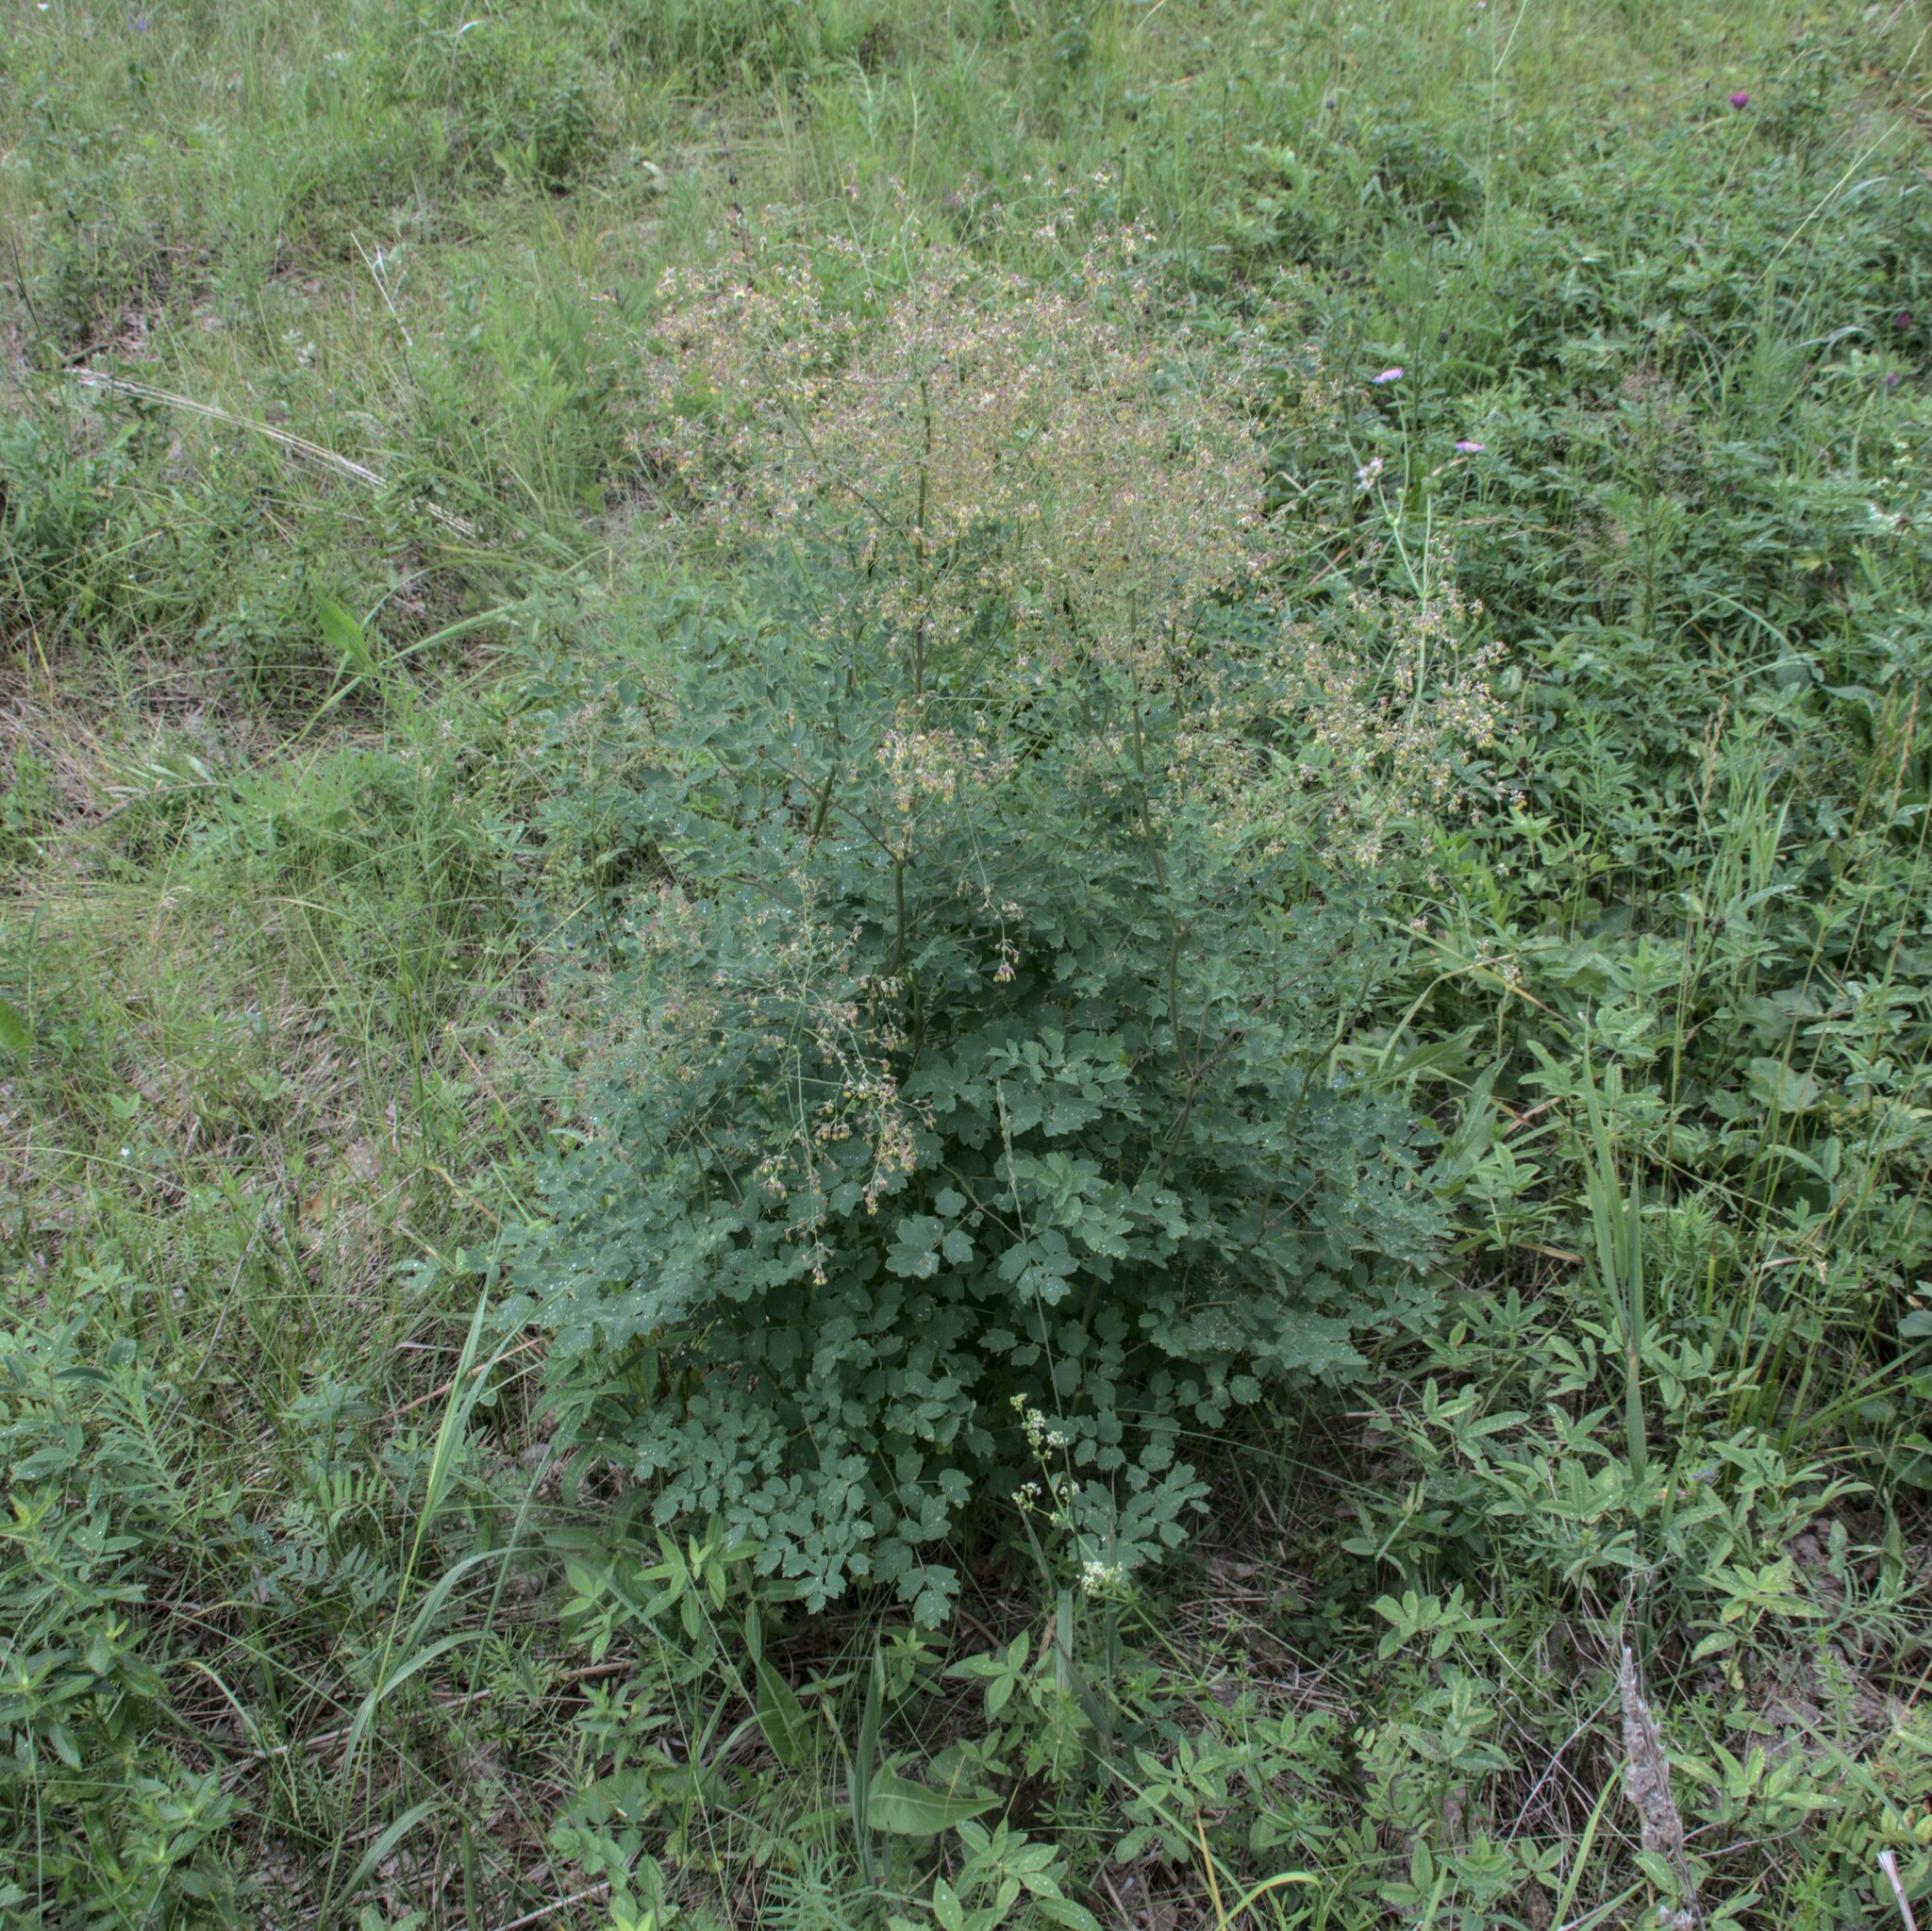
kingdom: Plantae
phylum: Tracheophyta
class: Magnoliopsida
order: Ranunculales
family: Ranunculaceae
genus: Thalictrum
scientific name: Thalictrum minus
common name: Lesser meadow-rue
